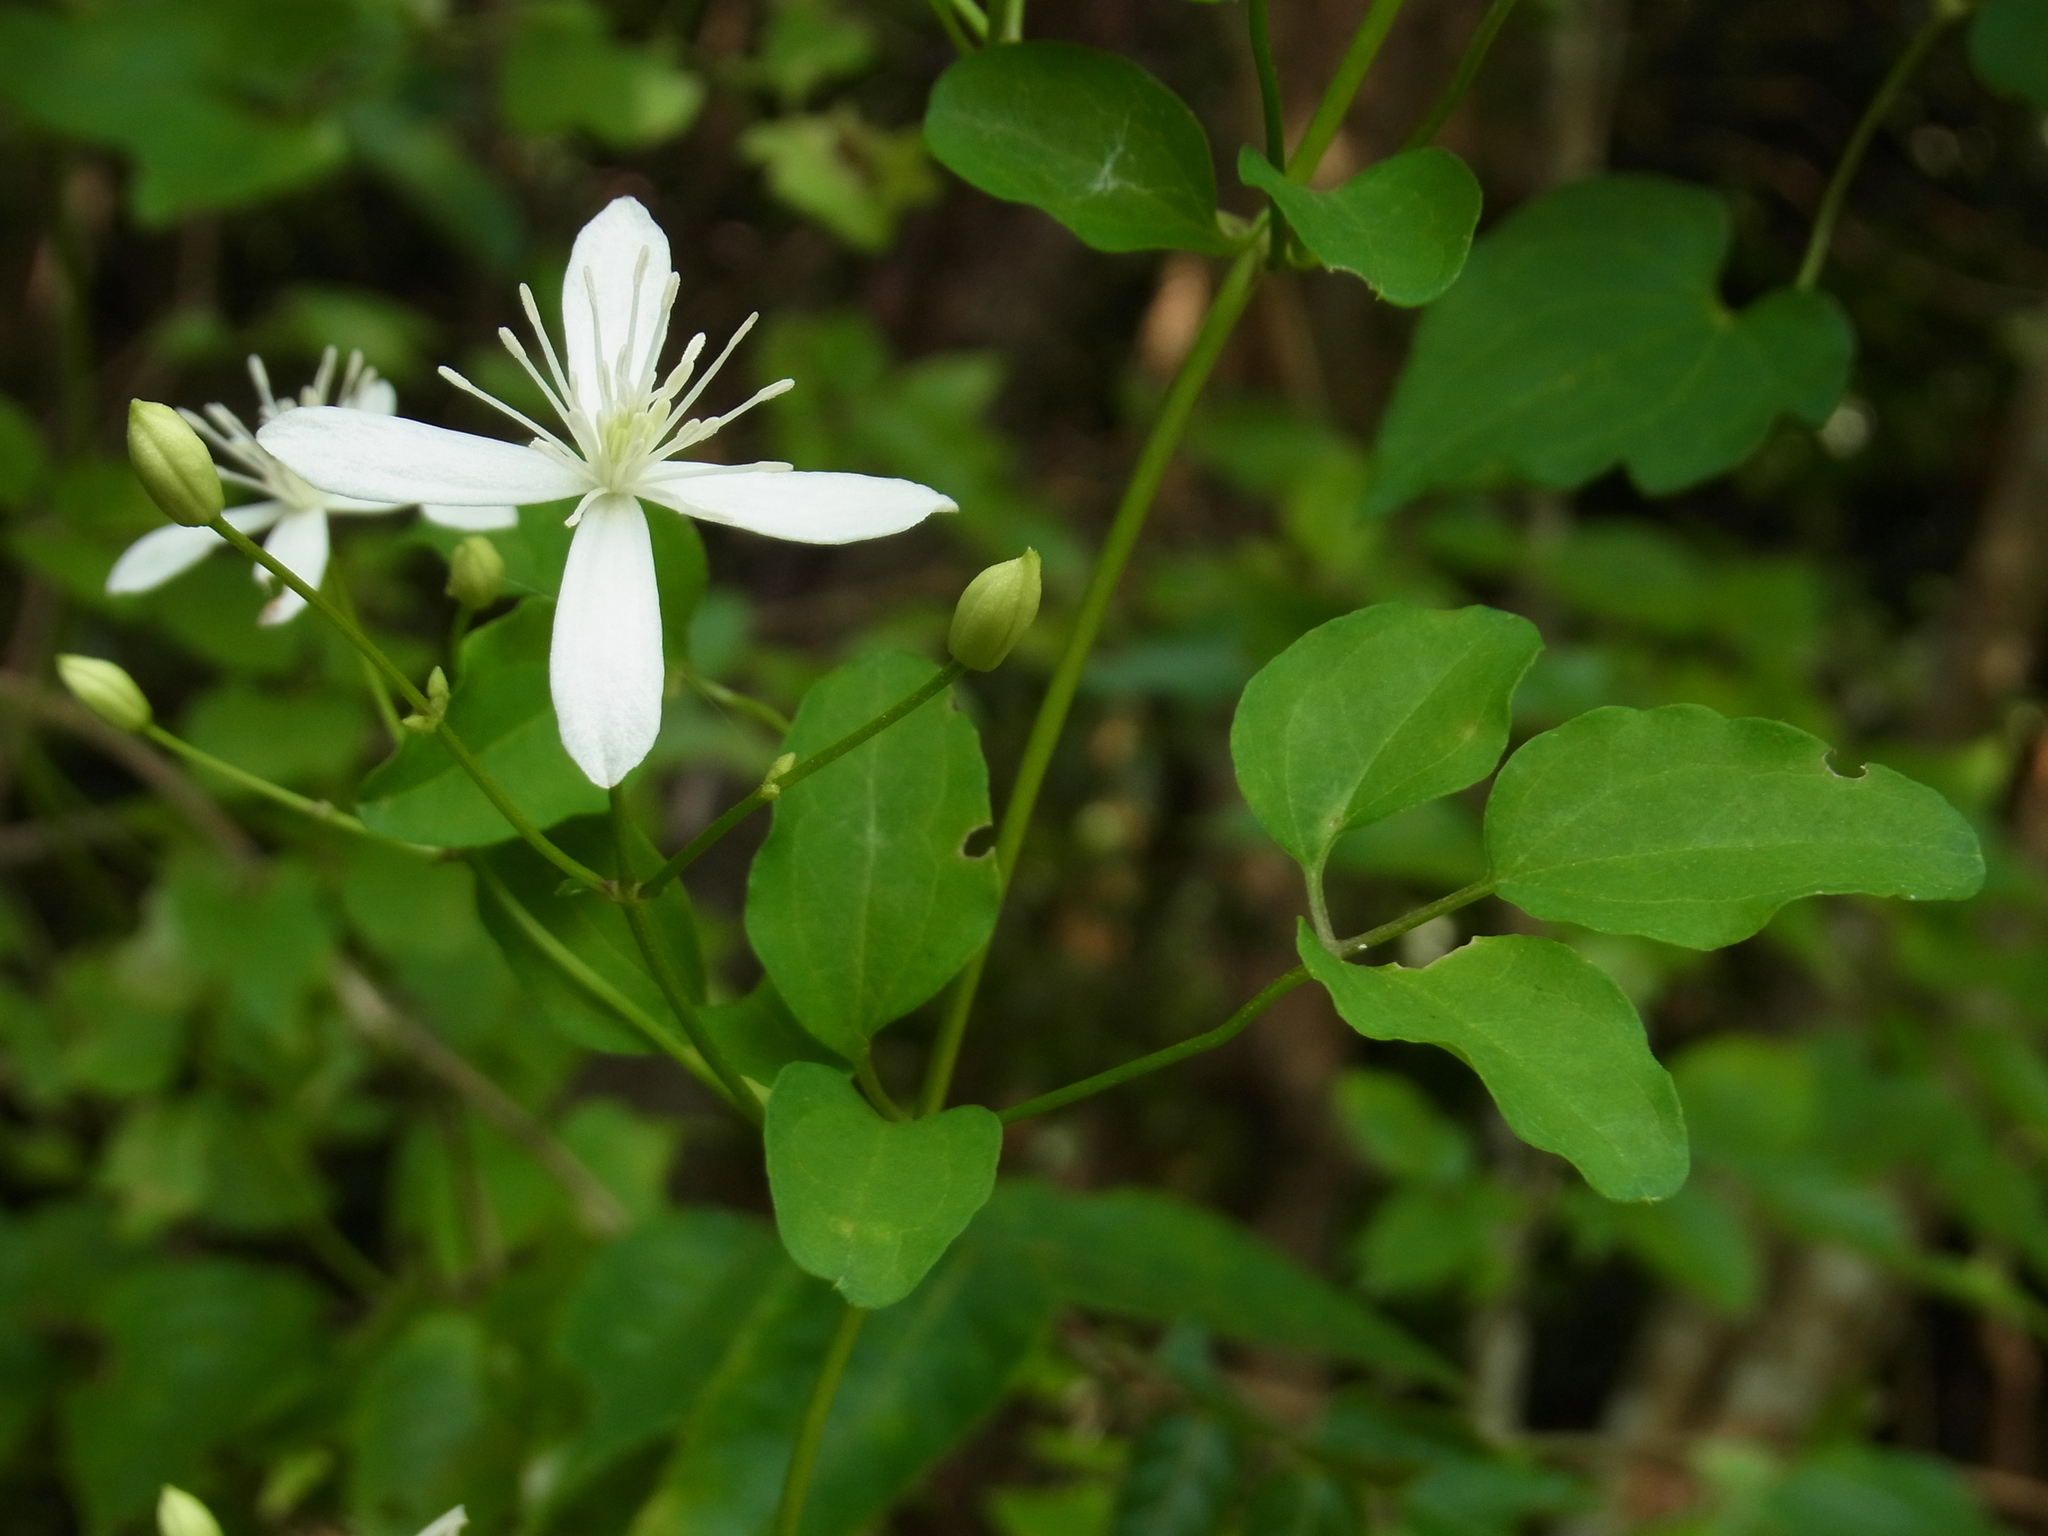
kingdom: Plantae
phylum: Tracheophyta
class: Magnoliopsida
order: Ranunculales
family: Ranunculaceae
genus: Clematis
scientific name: Clematis terniflora
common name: Sweet autumn clematis
